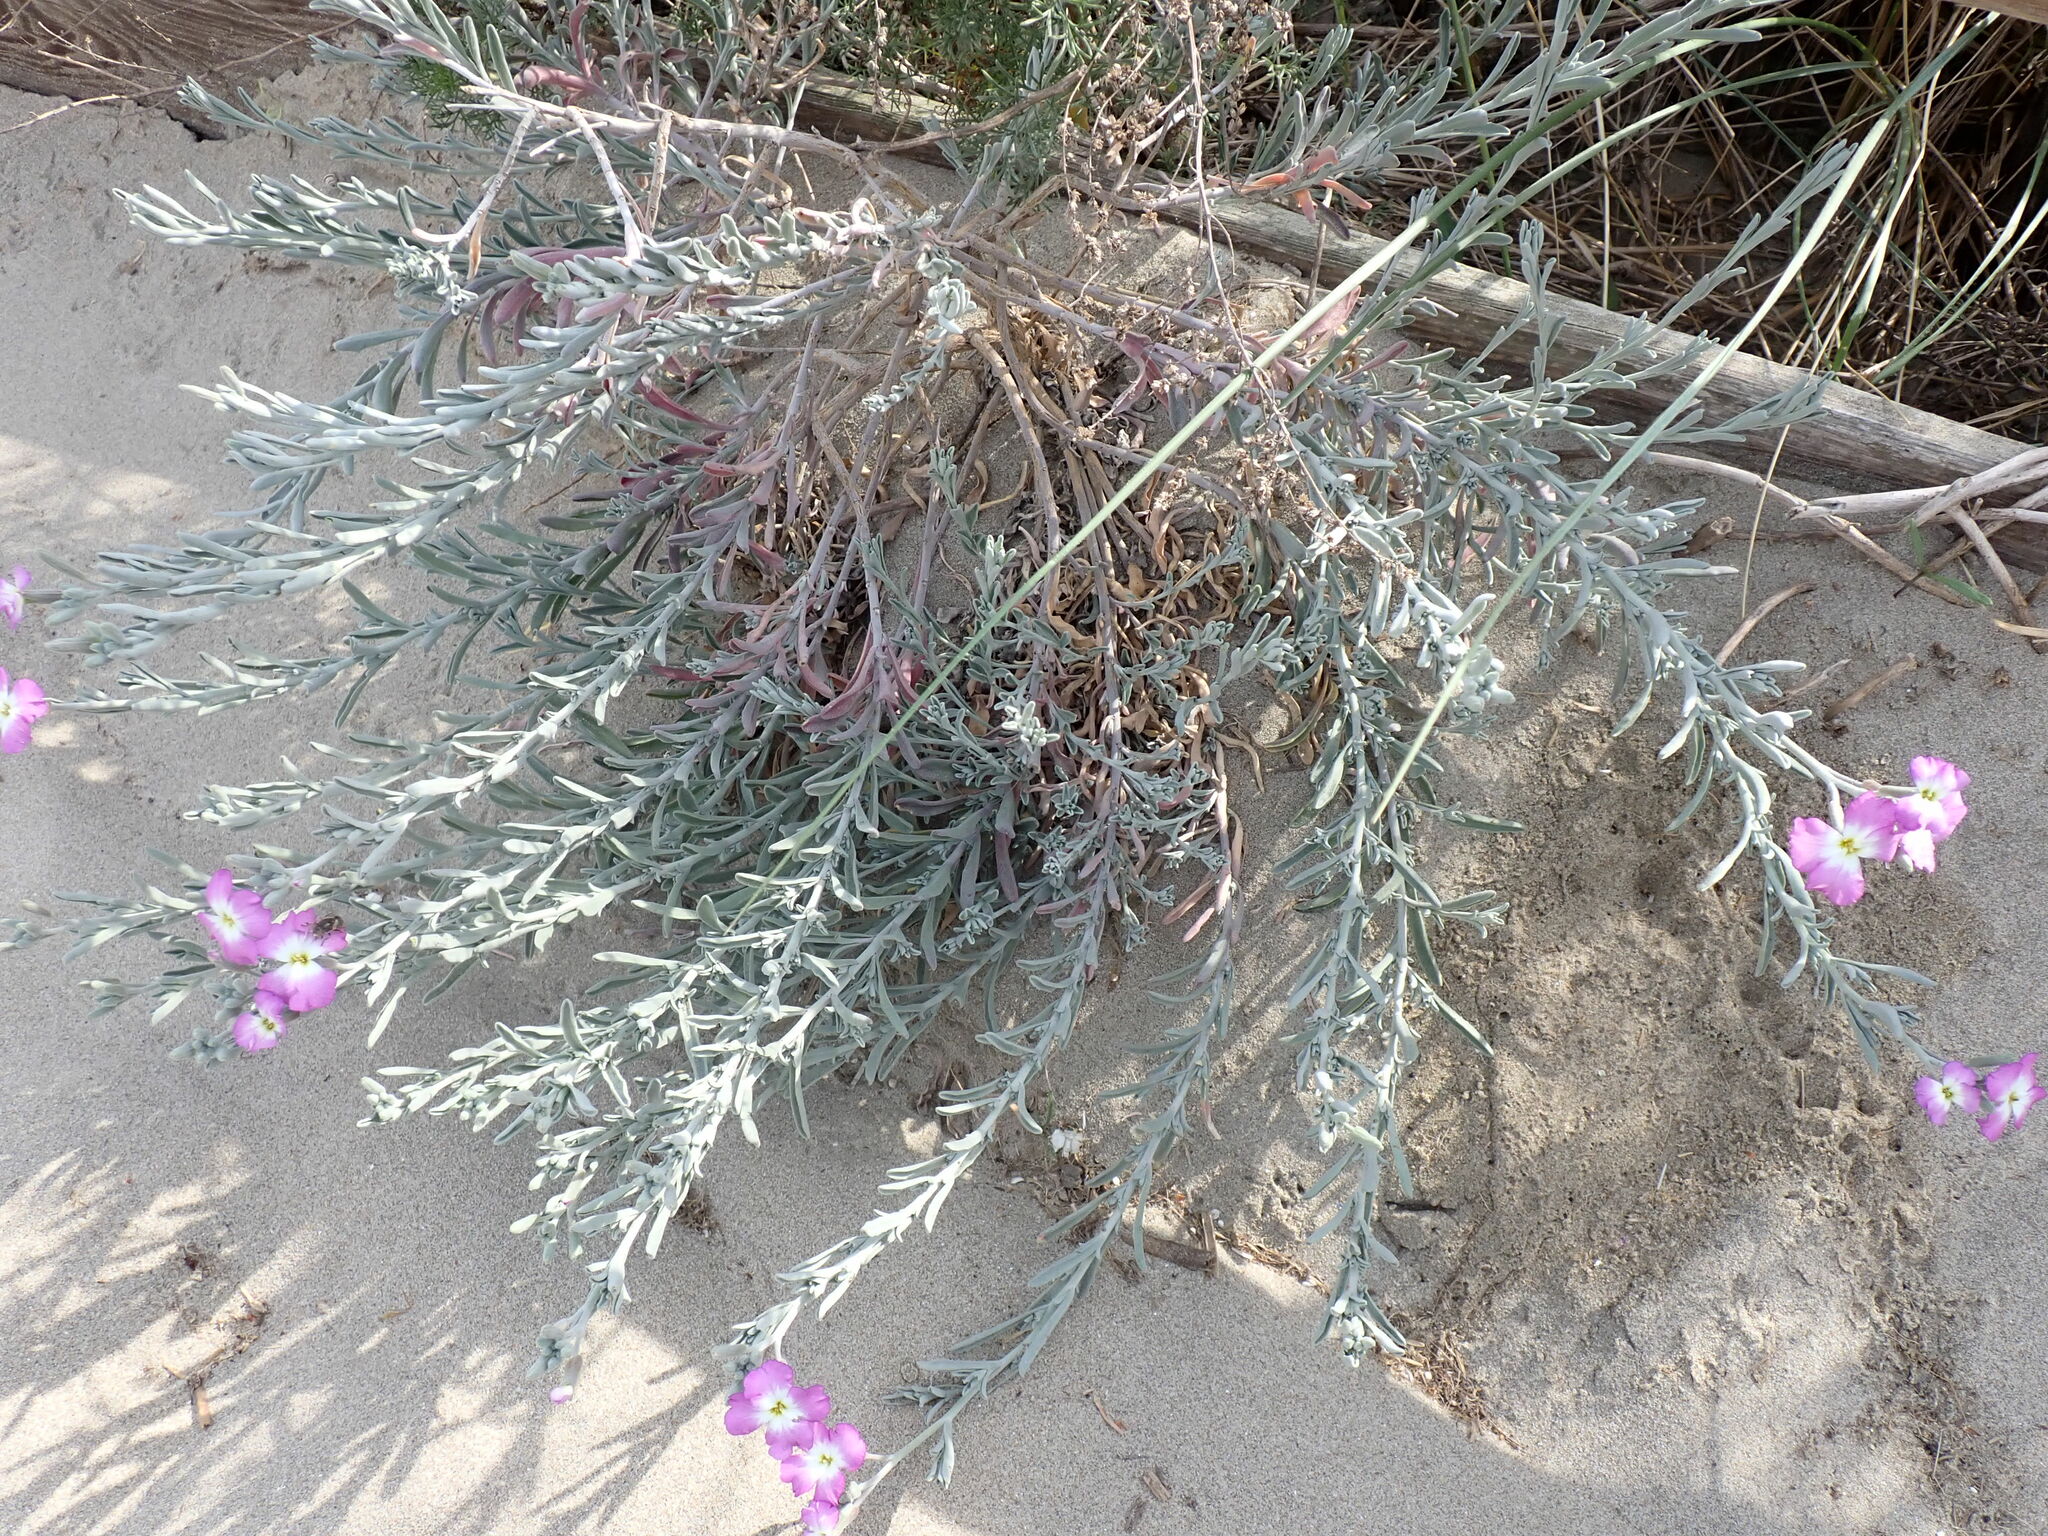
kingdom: Plantae
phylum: Tracheophyta
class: Magnoliopsida
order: Brassicales
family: Brassicaceae
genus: Marcuskochia
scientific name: Marcuskochia littorea
